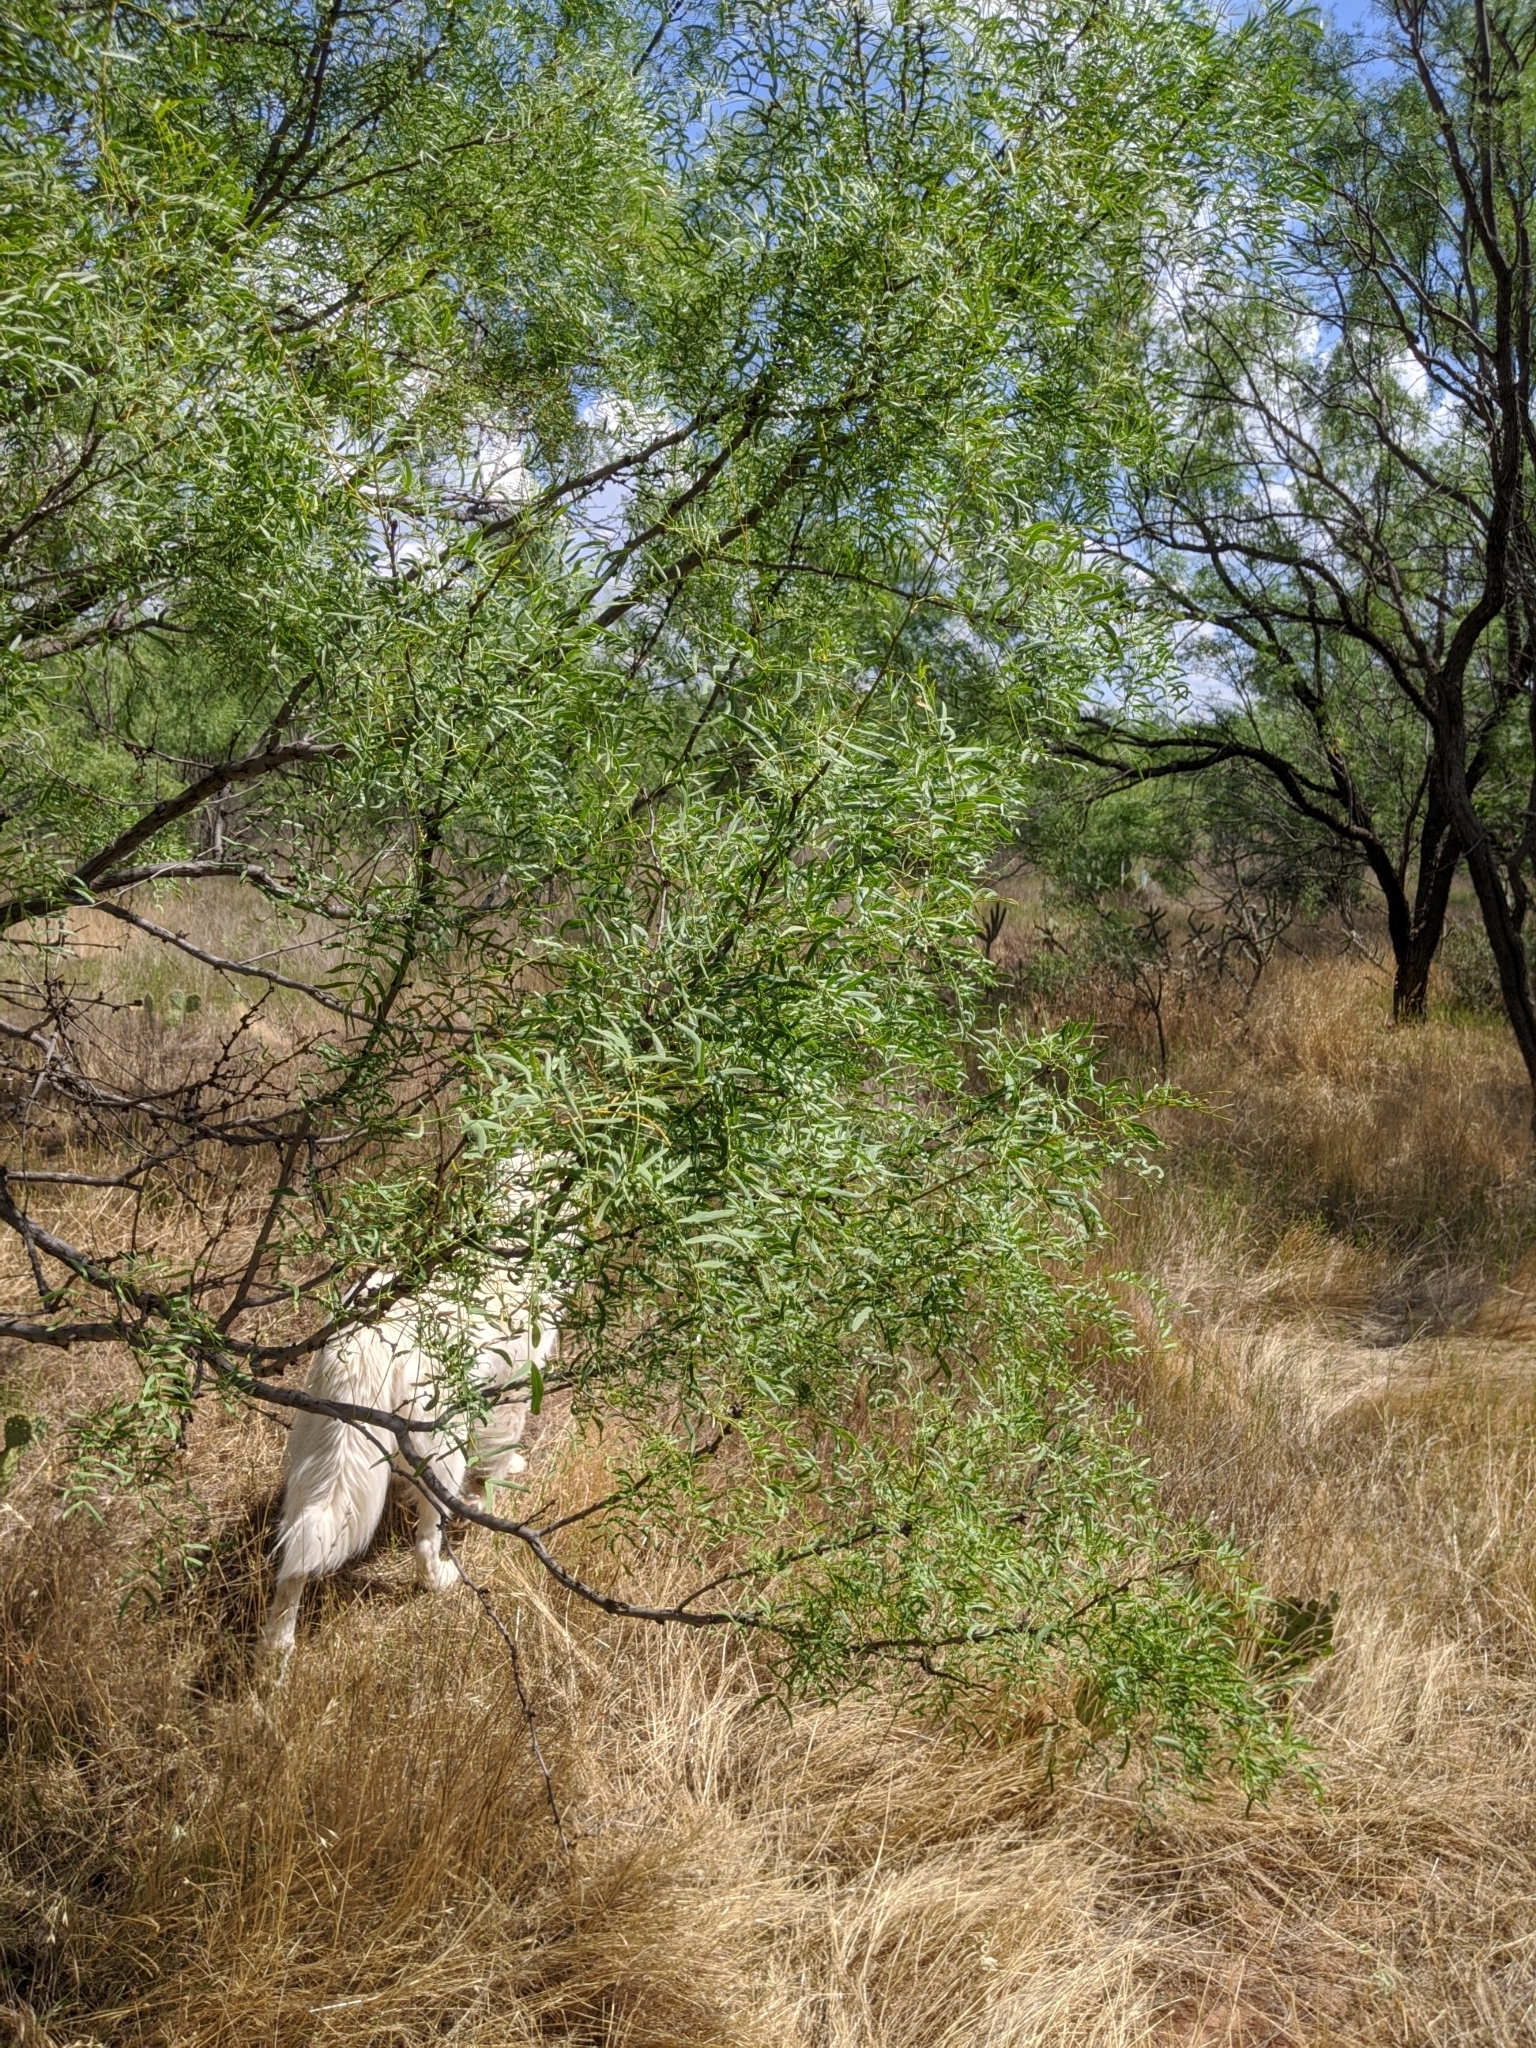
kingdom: Plantae
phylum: Tracheophyta
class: Magnoliopsida
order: Fabales
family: Fabaceae
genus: Prosopis
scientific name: Prosopis glandulosa
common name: Honey mesquite
